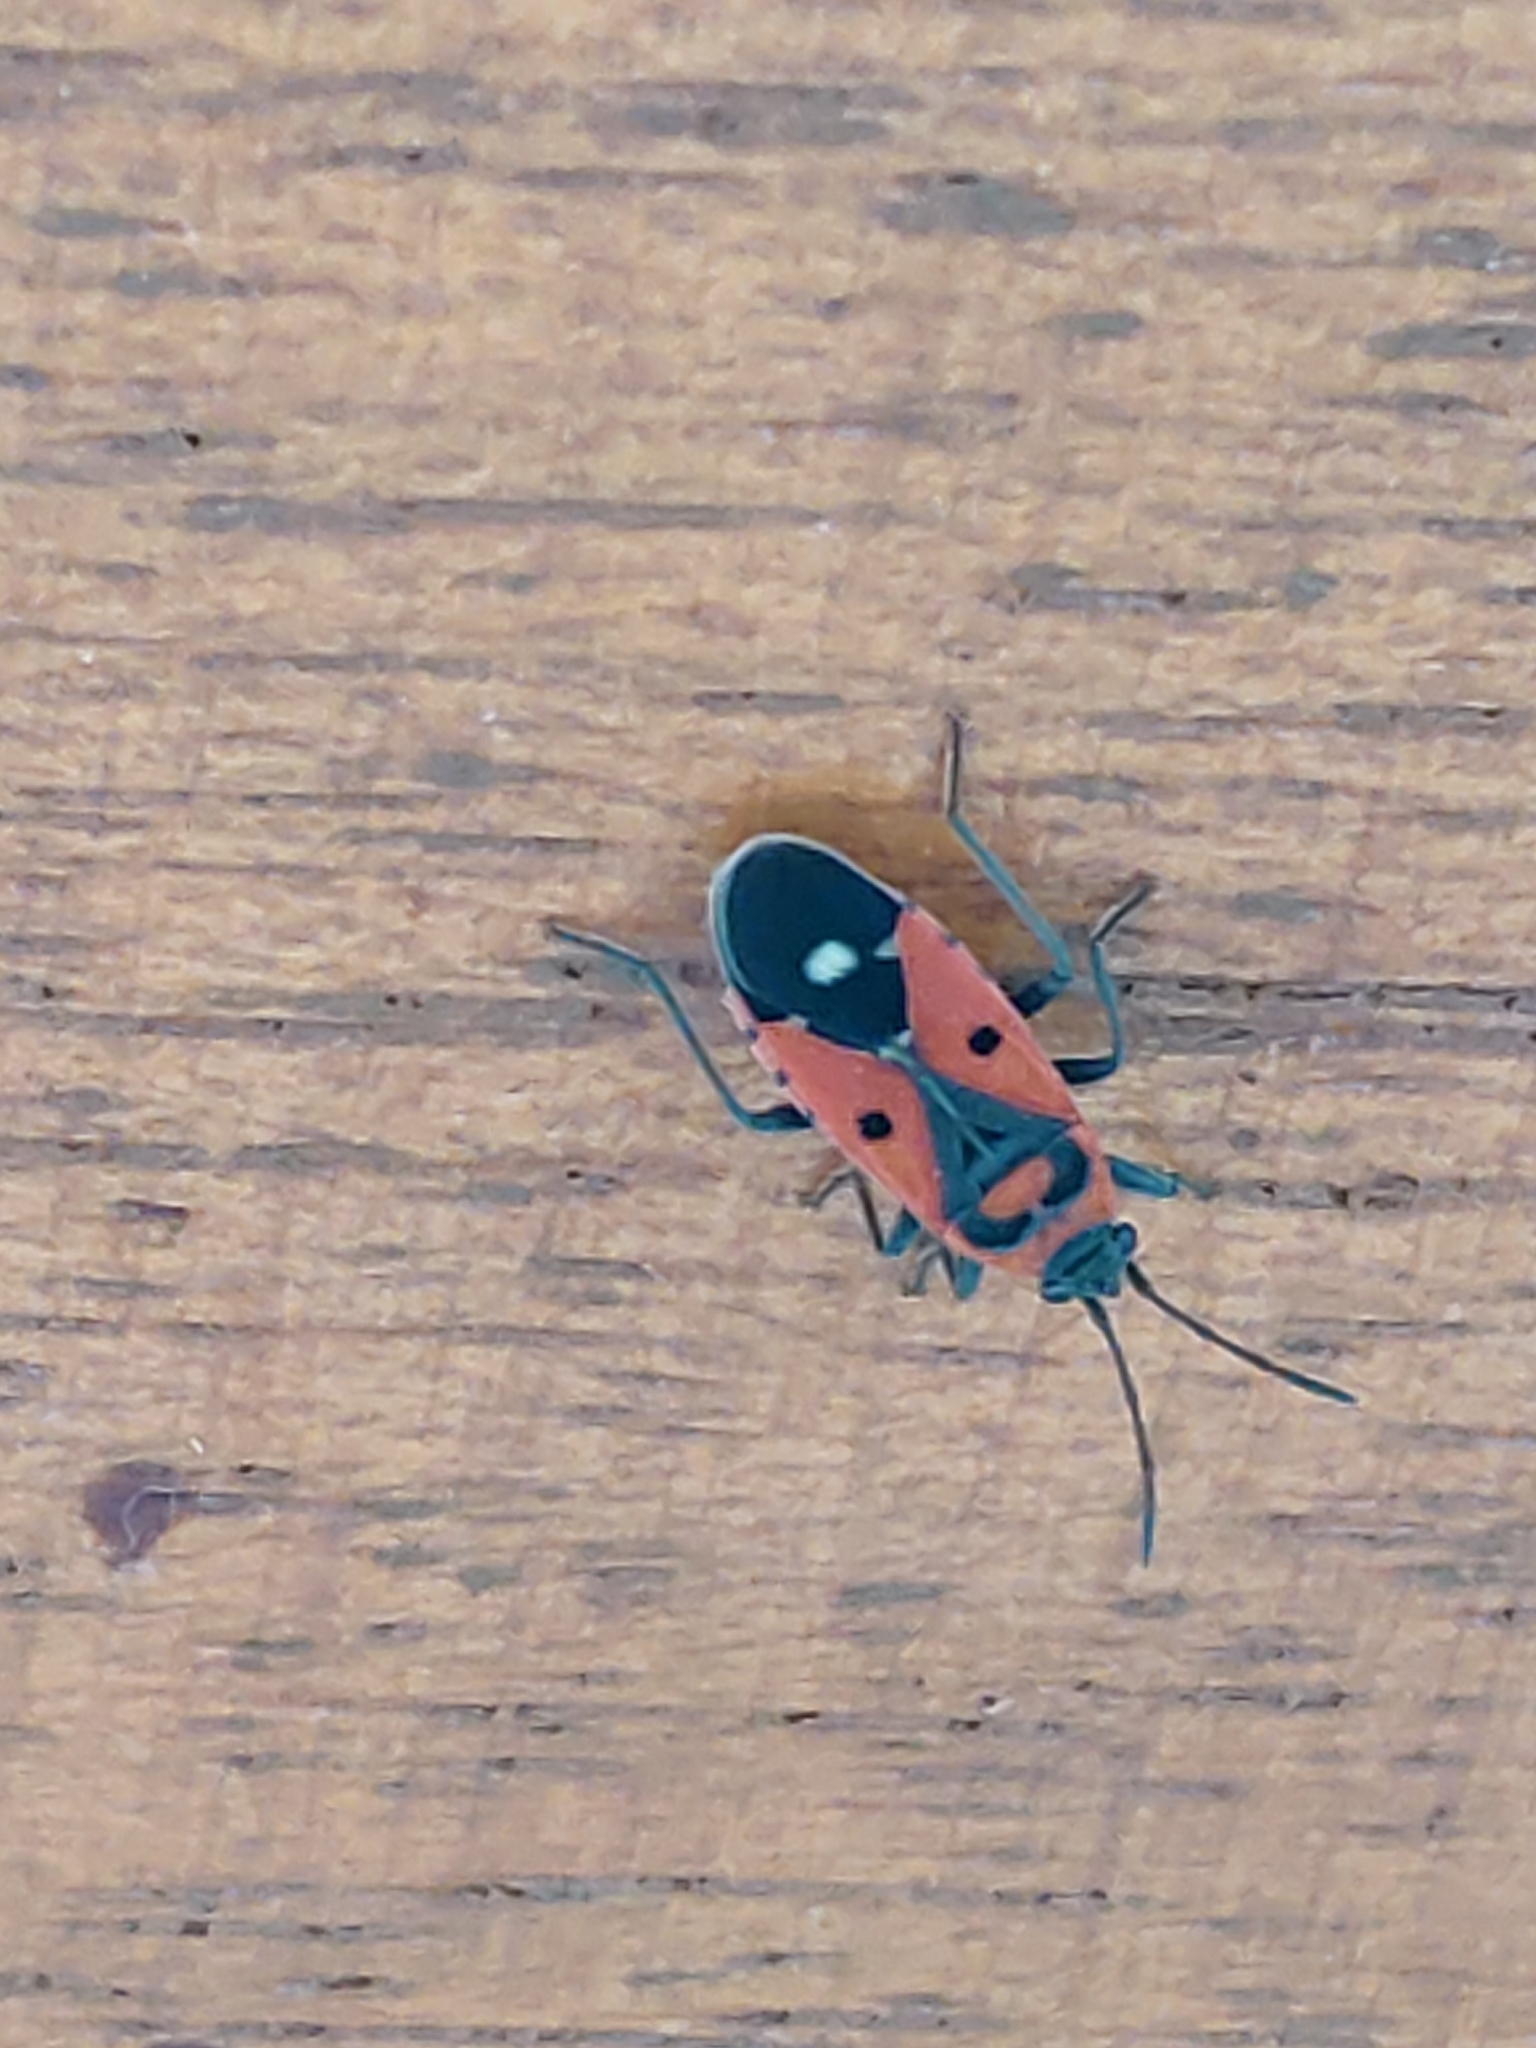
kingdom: Animalia
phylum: Arthropoda
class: Insecta
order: Hemiptera
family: Lygaeidae
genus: Melanocoryphus
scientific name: Melanocoryphus albomaculatus
